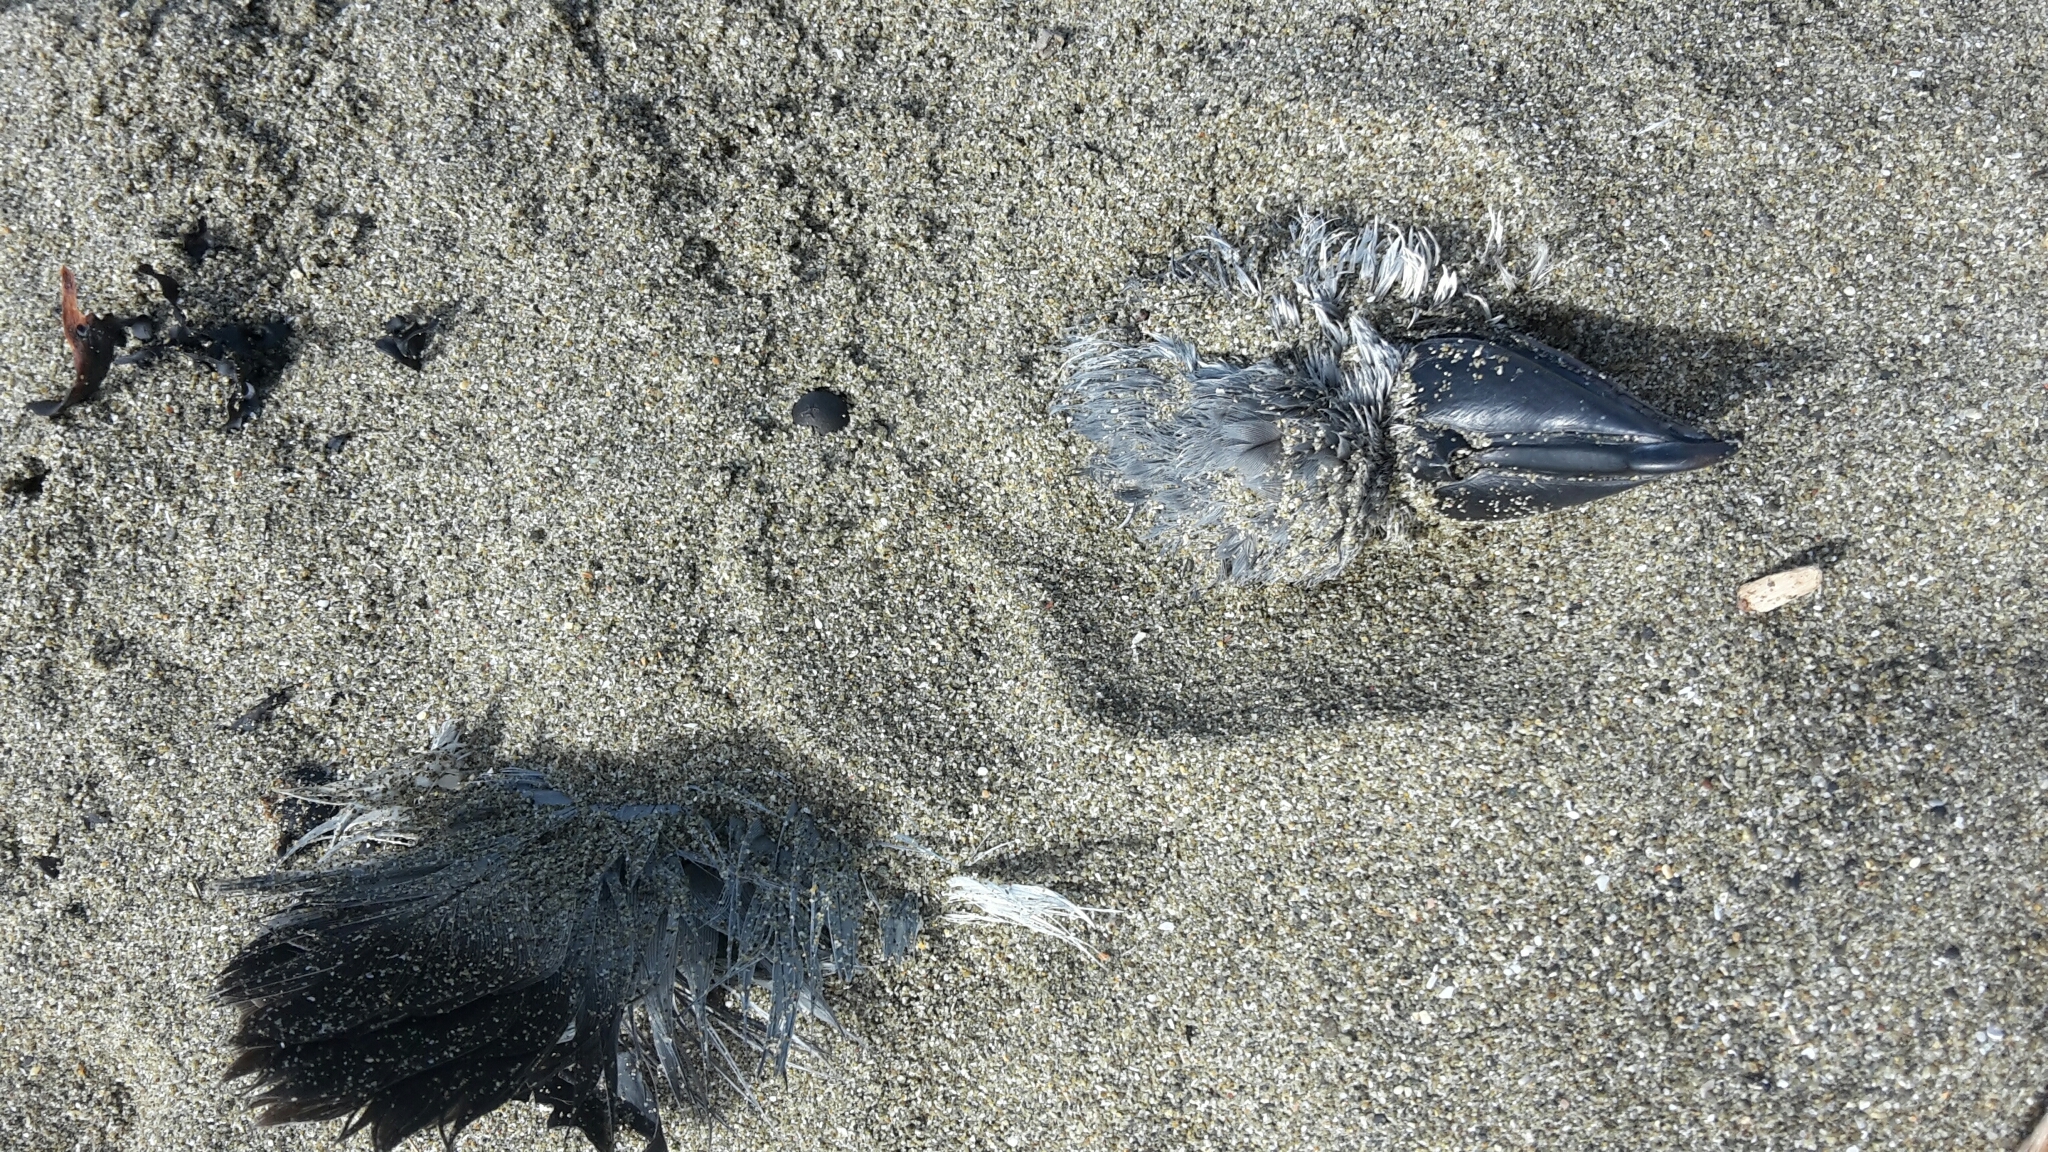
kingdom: Animalia
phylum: Chordata
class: Aves
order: Procellariiformes
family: Procellariidae
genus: Pachyptila
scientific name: Pachyptila vittata
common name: Broad-billed prion
